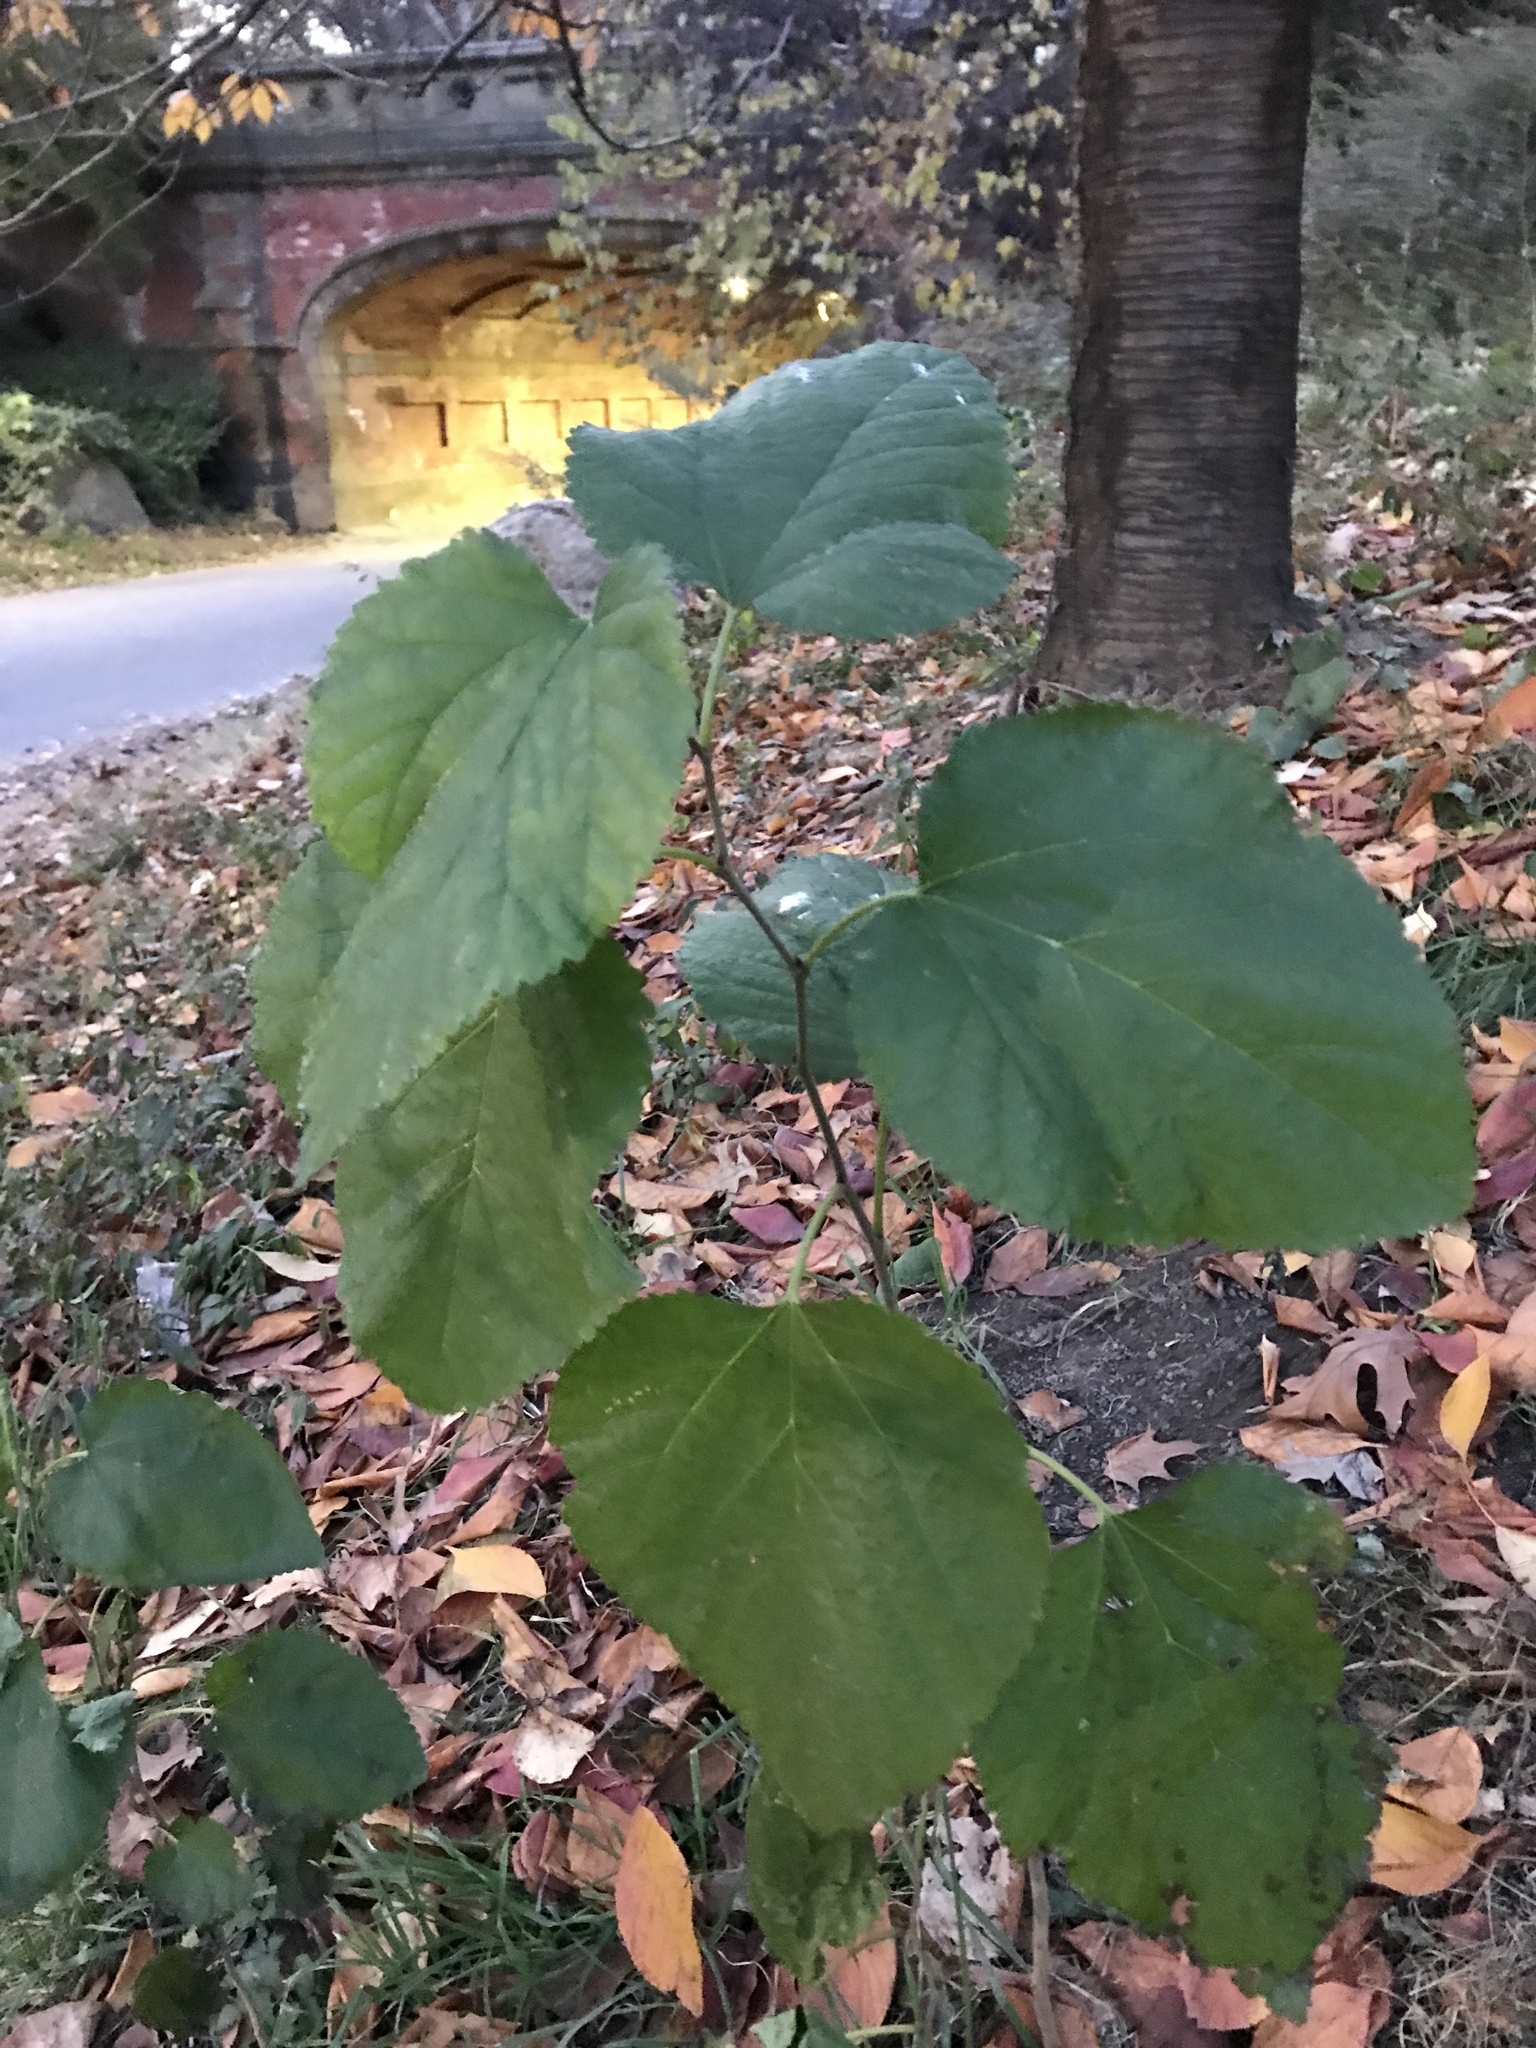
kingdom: Plantae
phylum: Tracheophyta
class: Magnoliopsida
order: Rosales
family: Moraceae
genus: Morus
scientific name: Morus alba
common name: White mulberry
